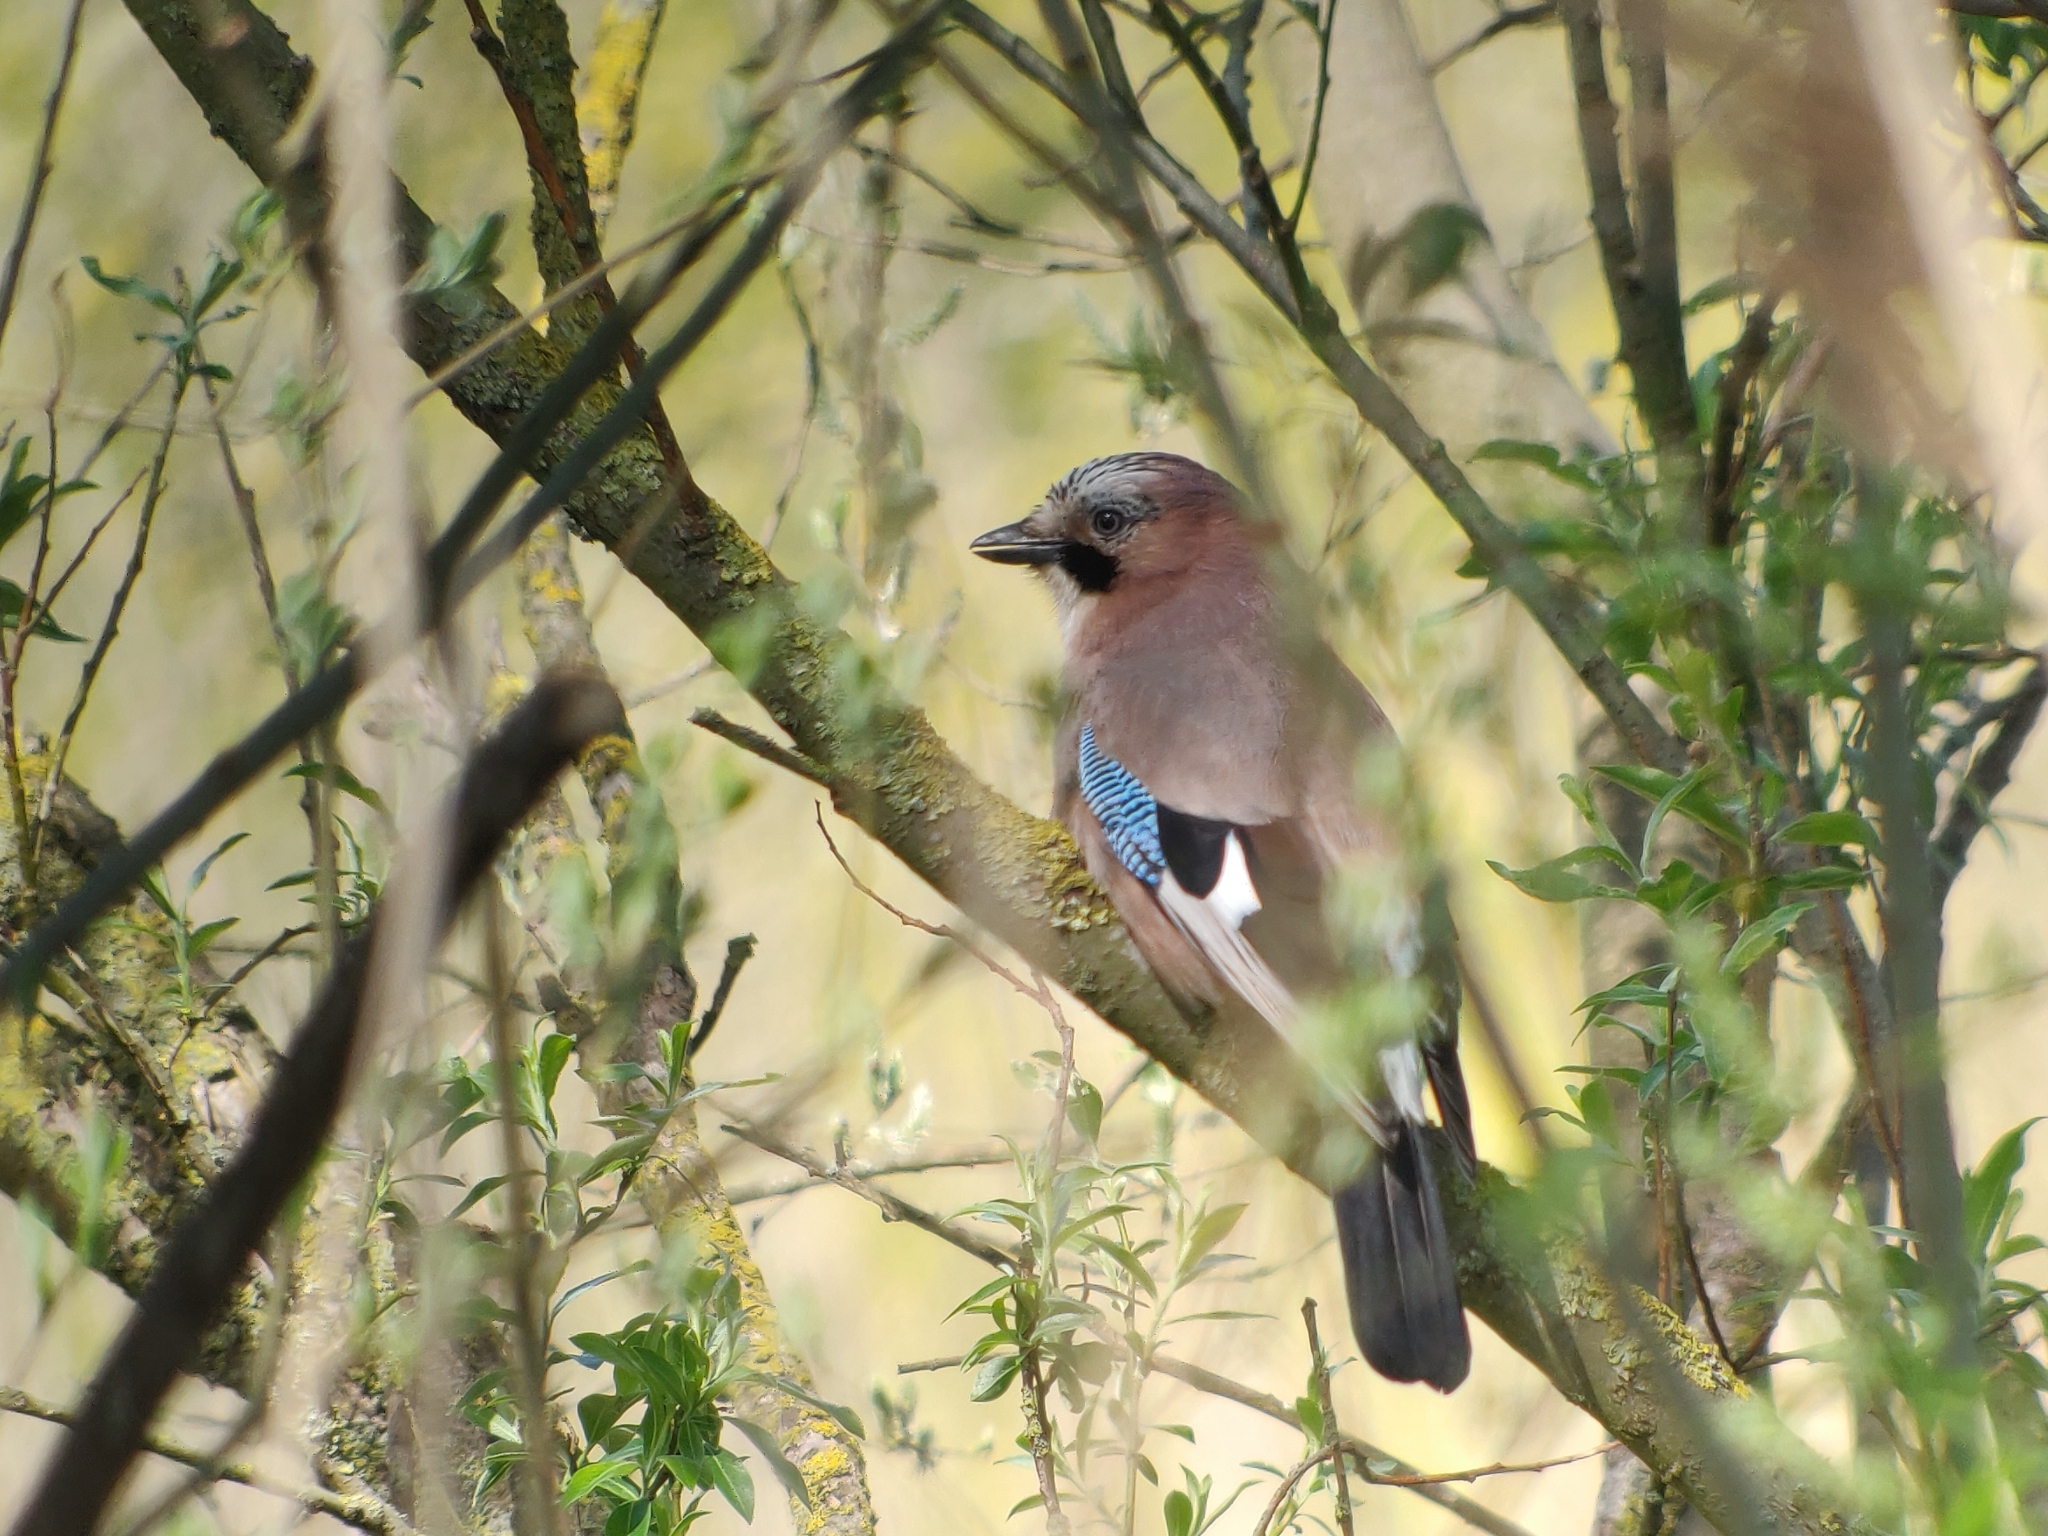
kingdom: Animalia
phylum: Chordata
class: Aves
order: Passeriformes
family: Corvidae
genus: Garrulus
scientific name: Garrulus glandarius
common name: Eurasian jay
